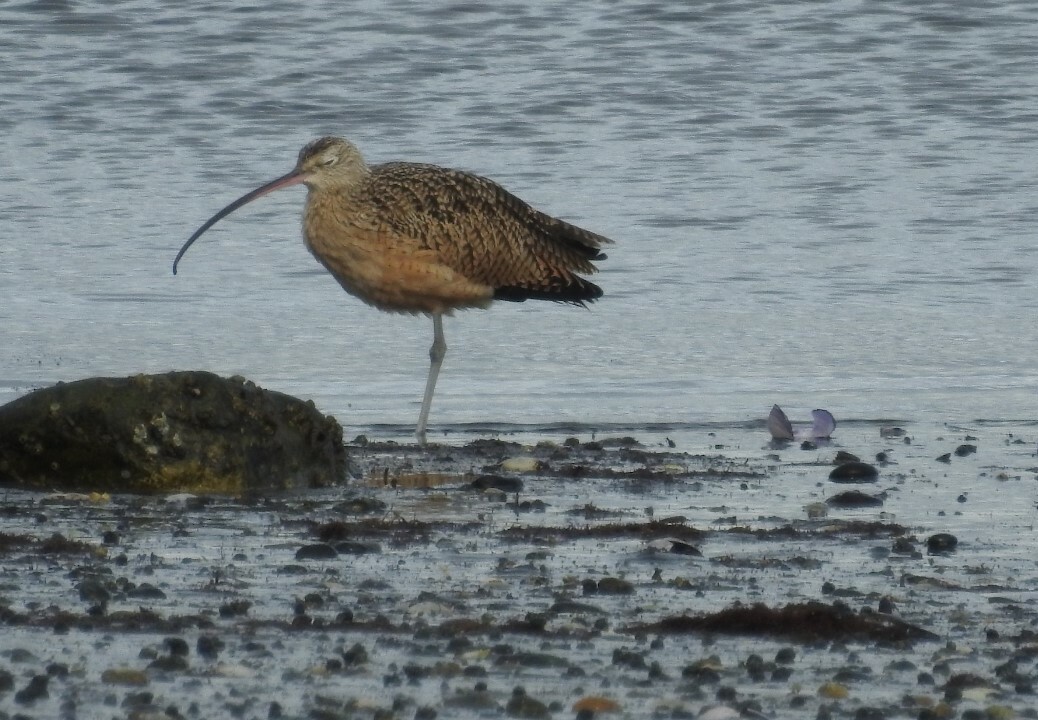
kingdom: Animalia
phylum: Chordata
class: Aves
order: Charadriiformes
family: Scolopacidae
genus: Numenius
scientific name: Numenius americanus
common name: Long-billed curlew
